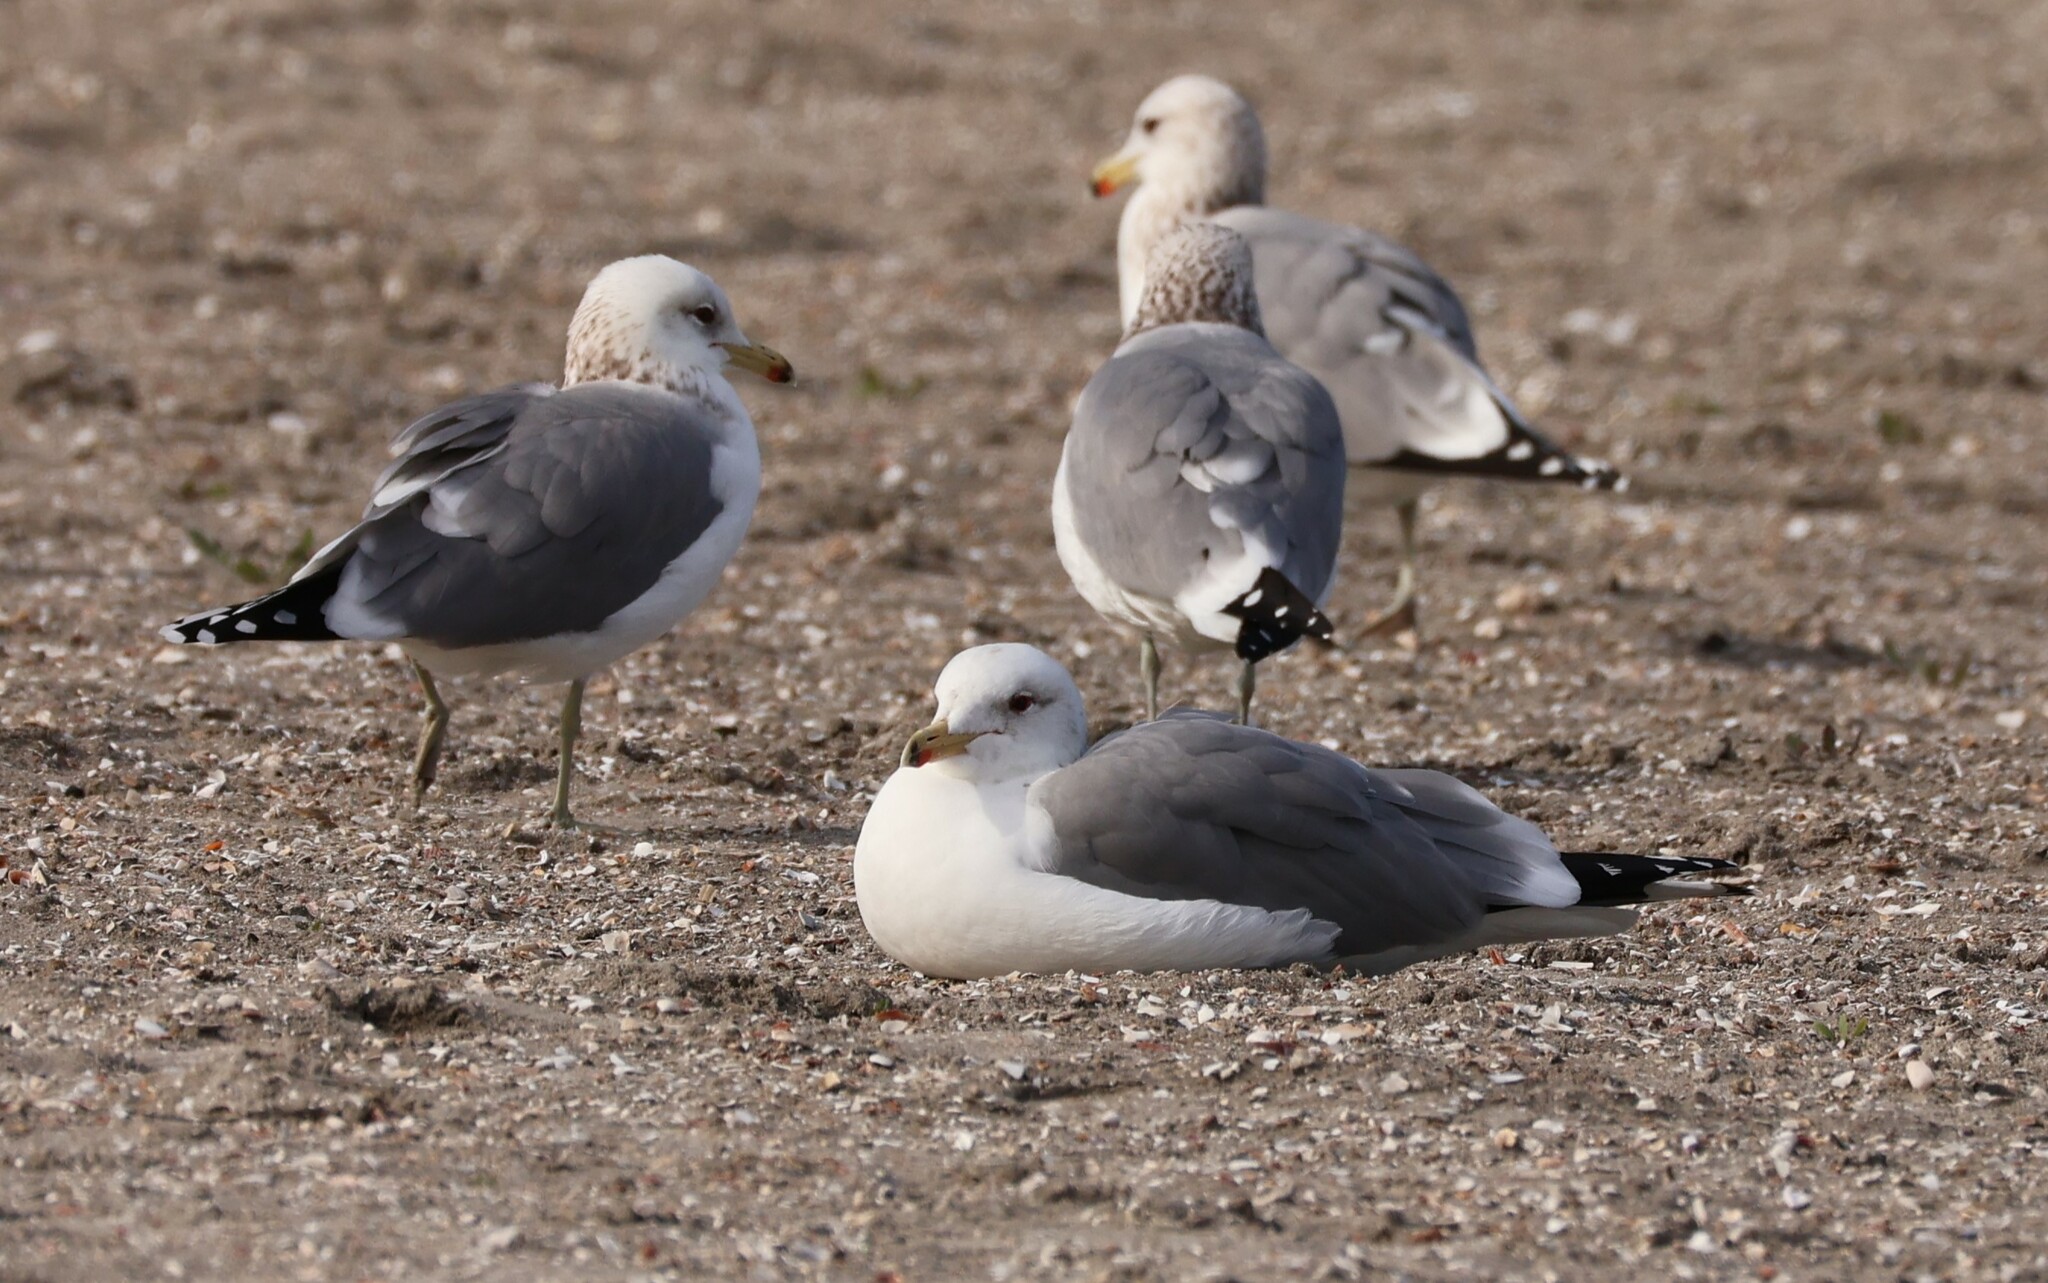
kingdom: Animalia
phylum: Chordata
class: Aves
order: Charadriiformes
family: Laridae
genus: Larus
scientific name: Larus californicus
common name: California gull
